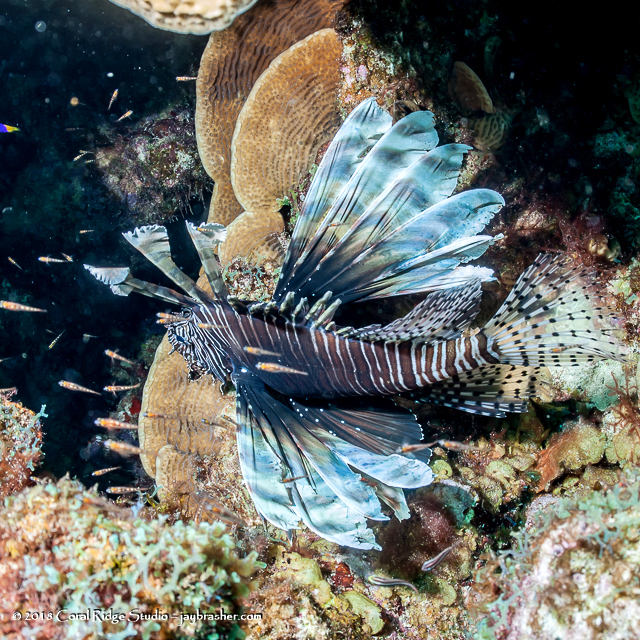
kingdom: Animalia
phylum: Chordata
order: Scorpaeniformes
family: Scorpaenidae
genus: Pterois
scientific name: Pterois volitans
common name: Lionfish
